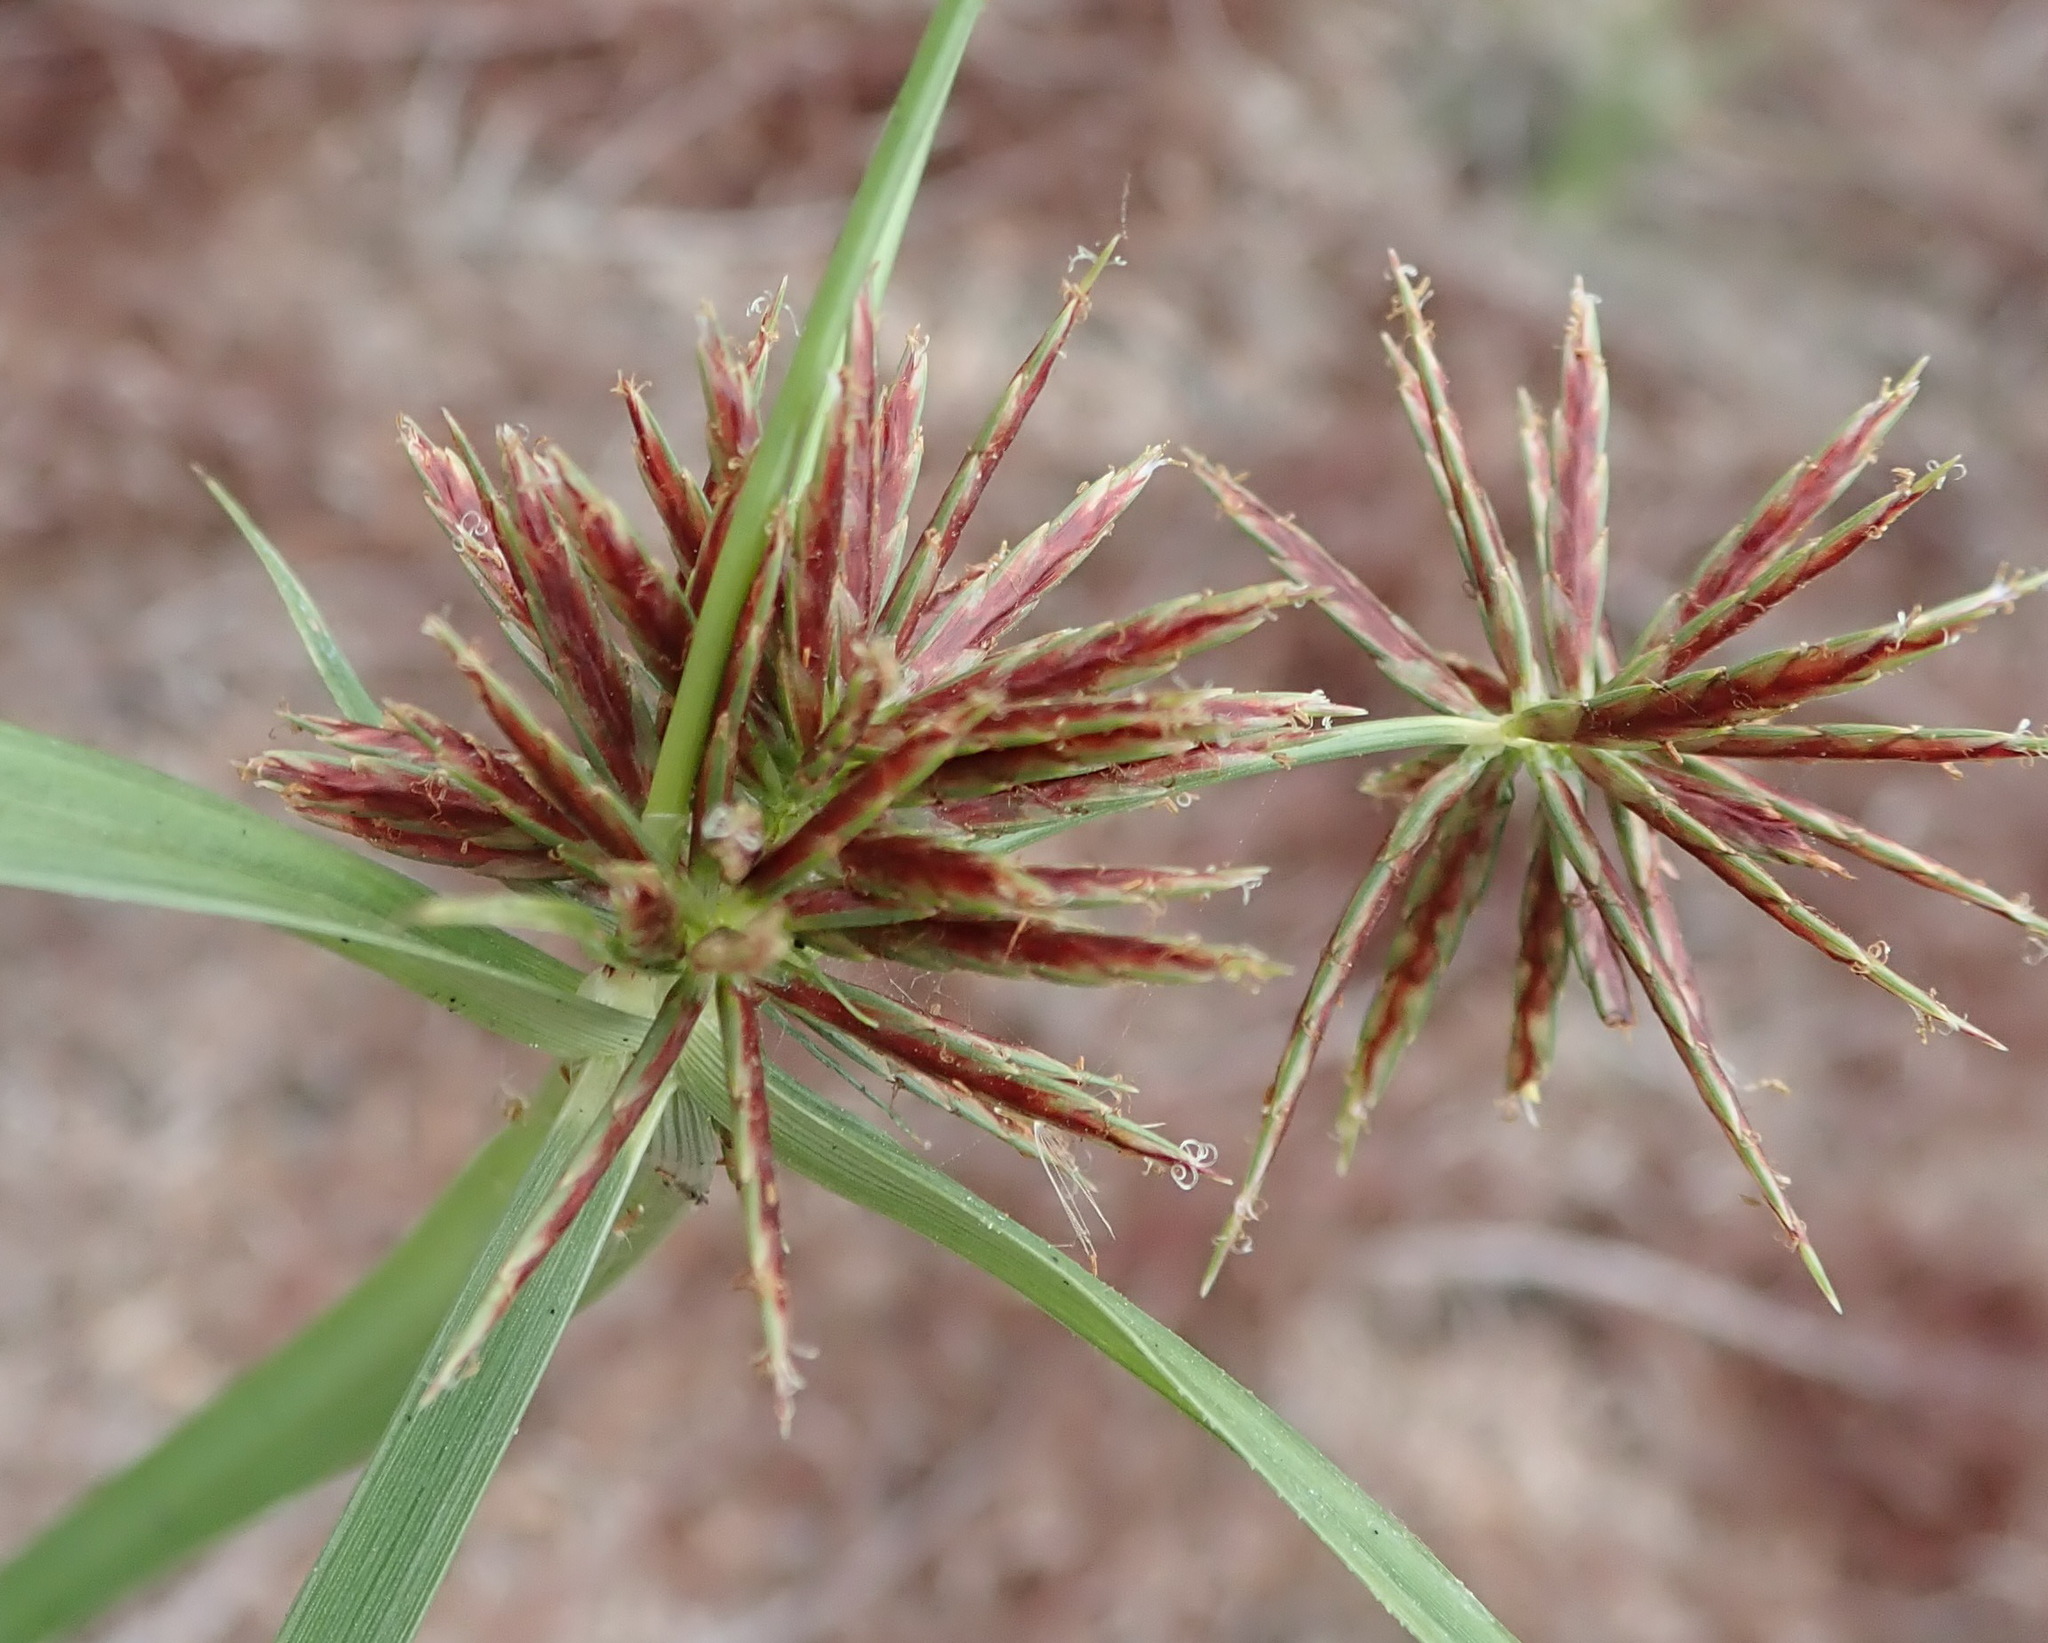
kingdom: Plantae
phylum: Tracheophyta
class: Liliopsida
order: Poales
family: Cyperaceae
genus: Cyperus
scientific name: Cyperus congestus
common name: Dense flat sedge
